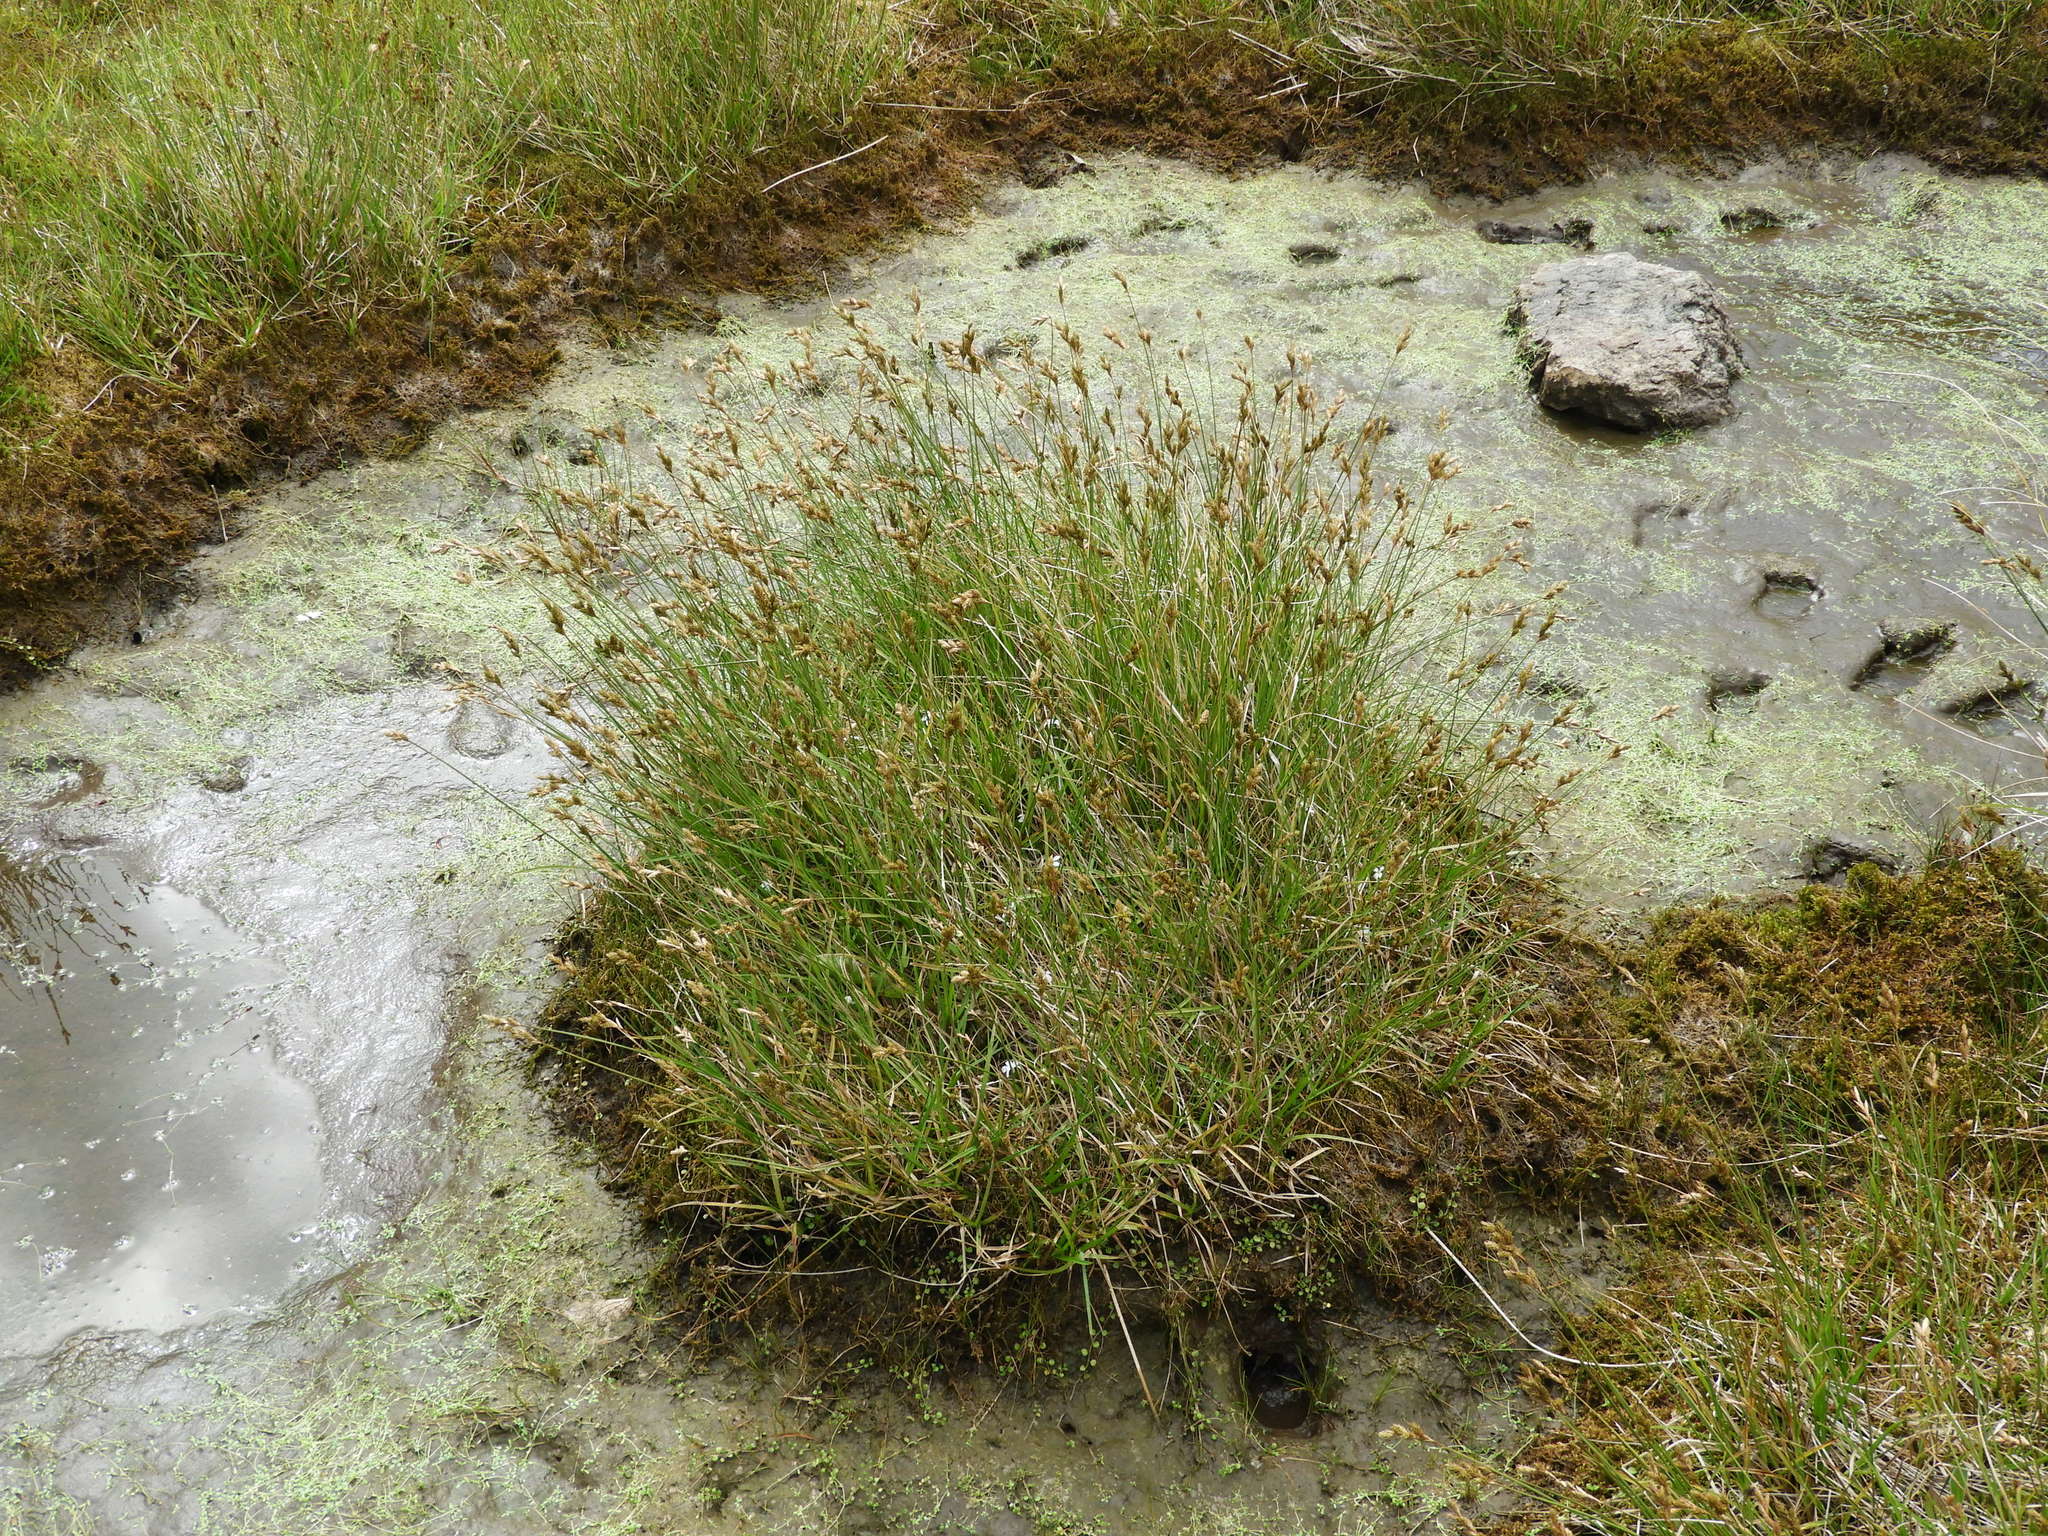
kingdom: Plantae
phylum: Tracheophyta
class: Liliopsida
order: Poales
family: Cyperaceae
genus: Carex
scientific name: Carex leporina
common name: Oval sedge
